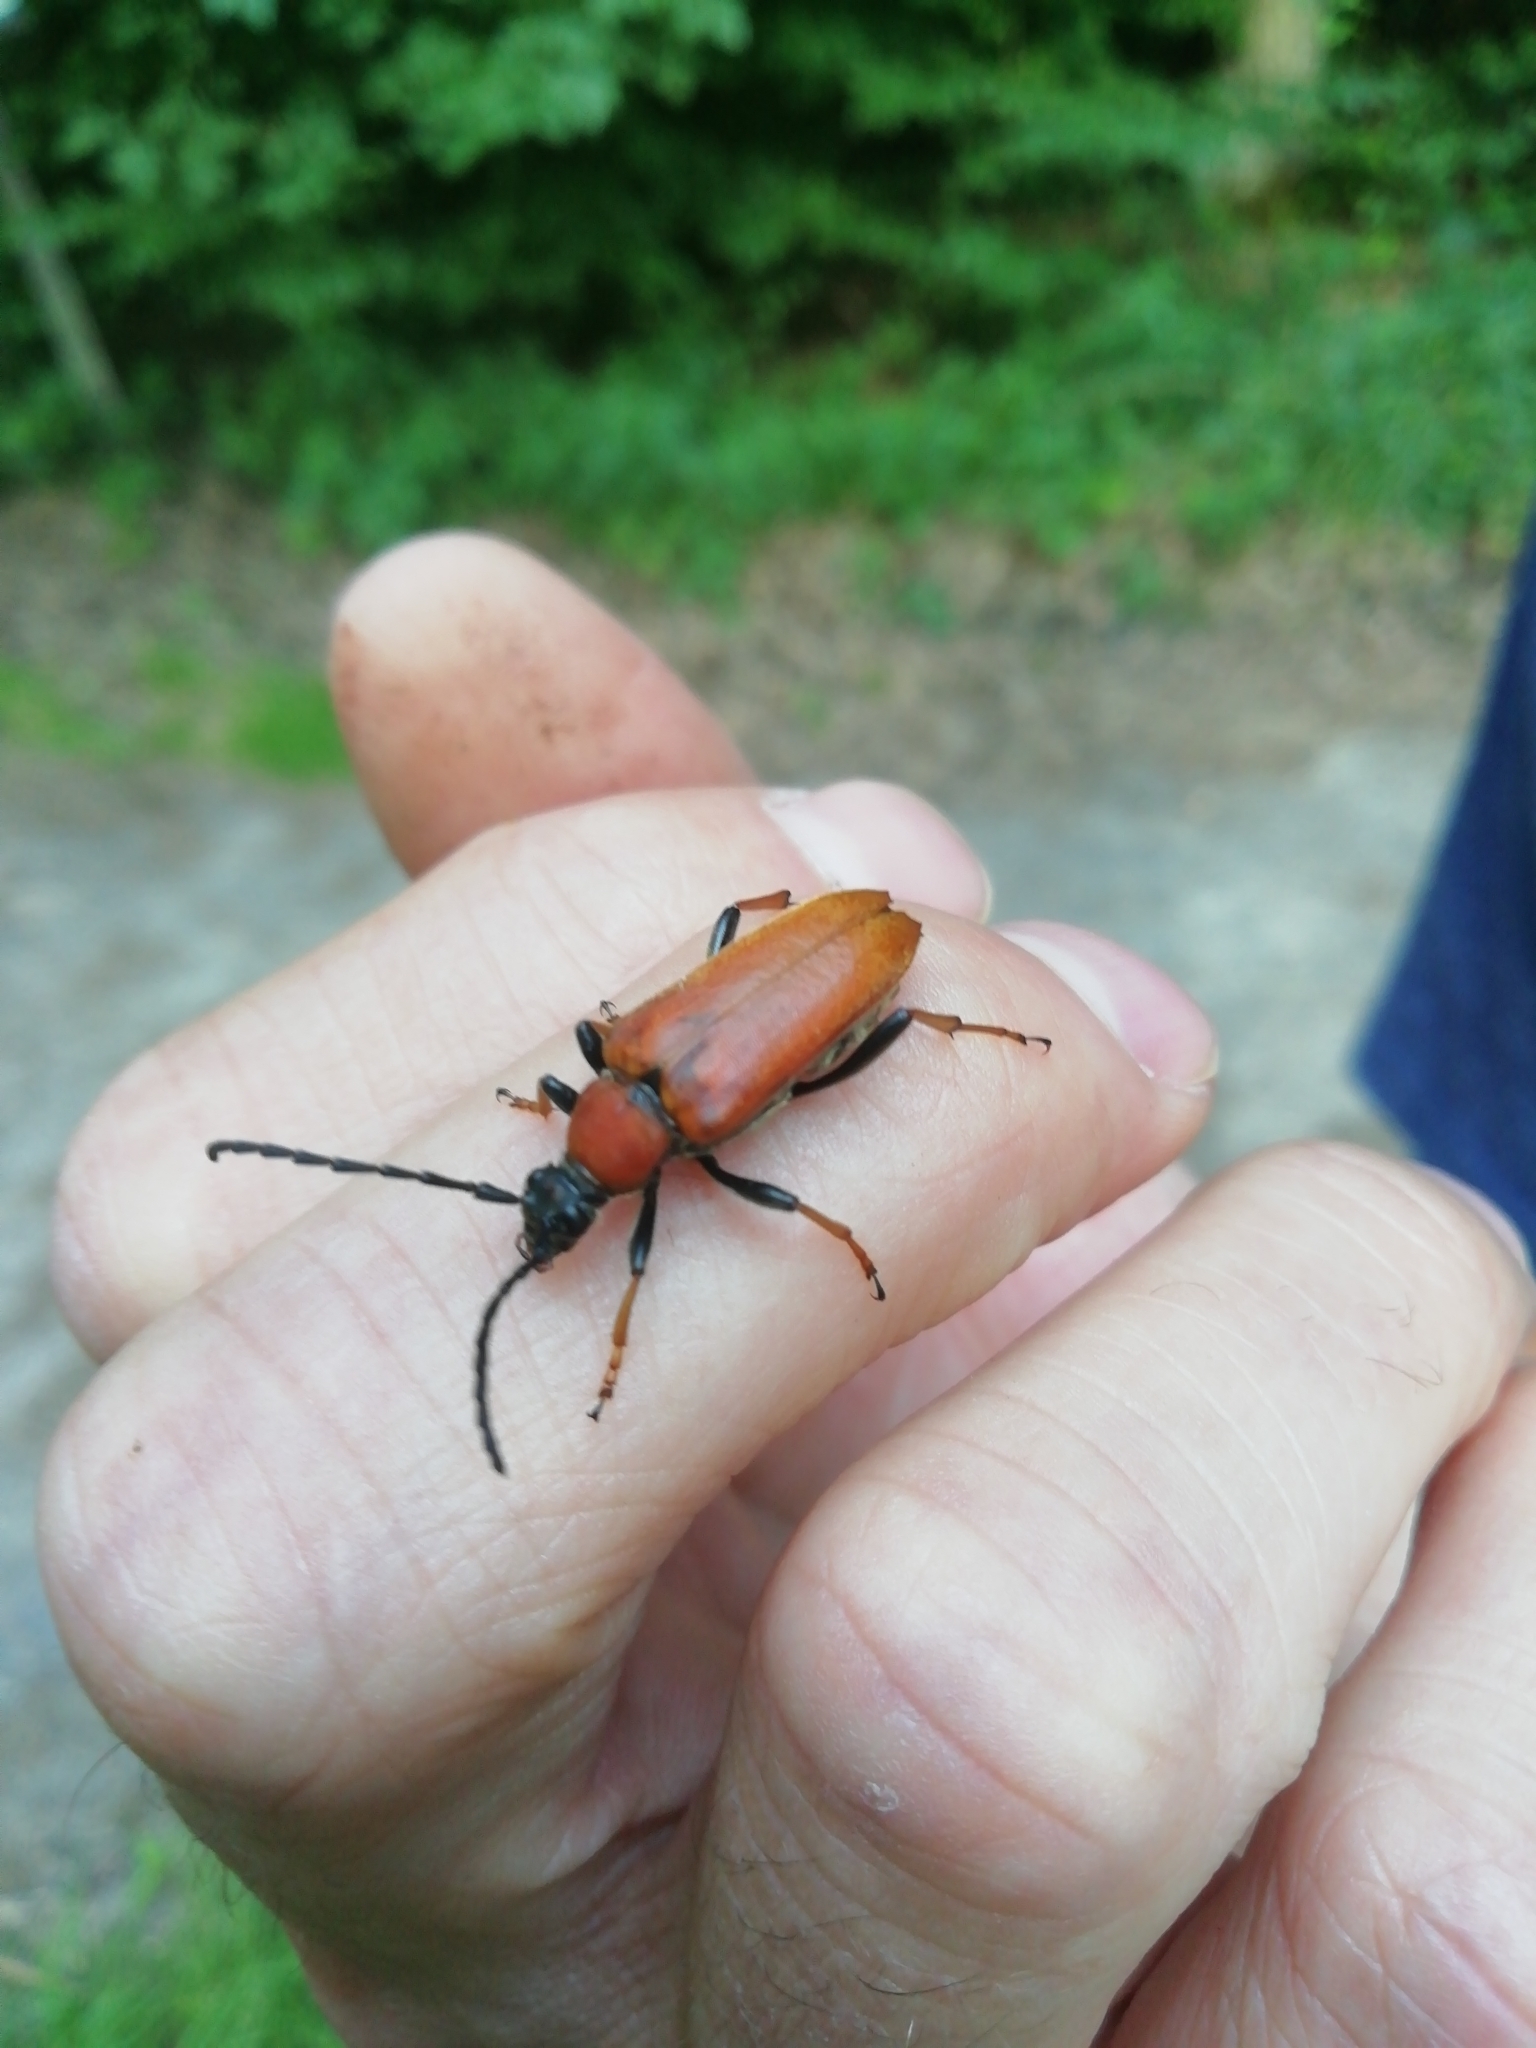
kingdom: Animalia
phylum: Arthropoda
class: Insecta
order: Coleoptera
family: Cerambycidae
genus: Stictoleptura
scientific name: Stictoleptura rubra
